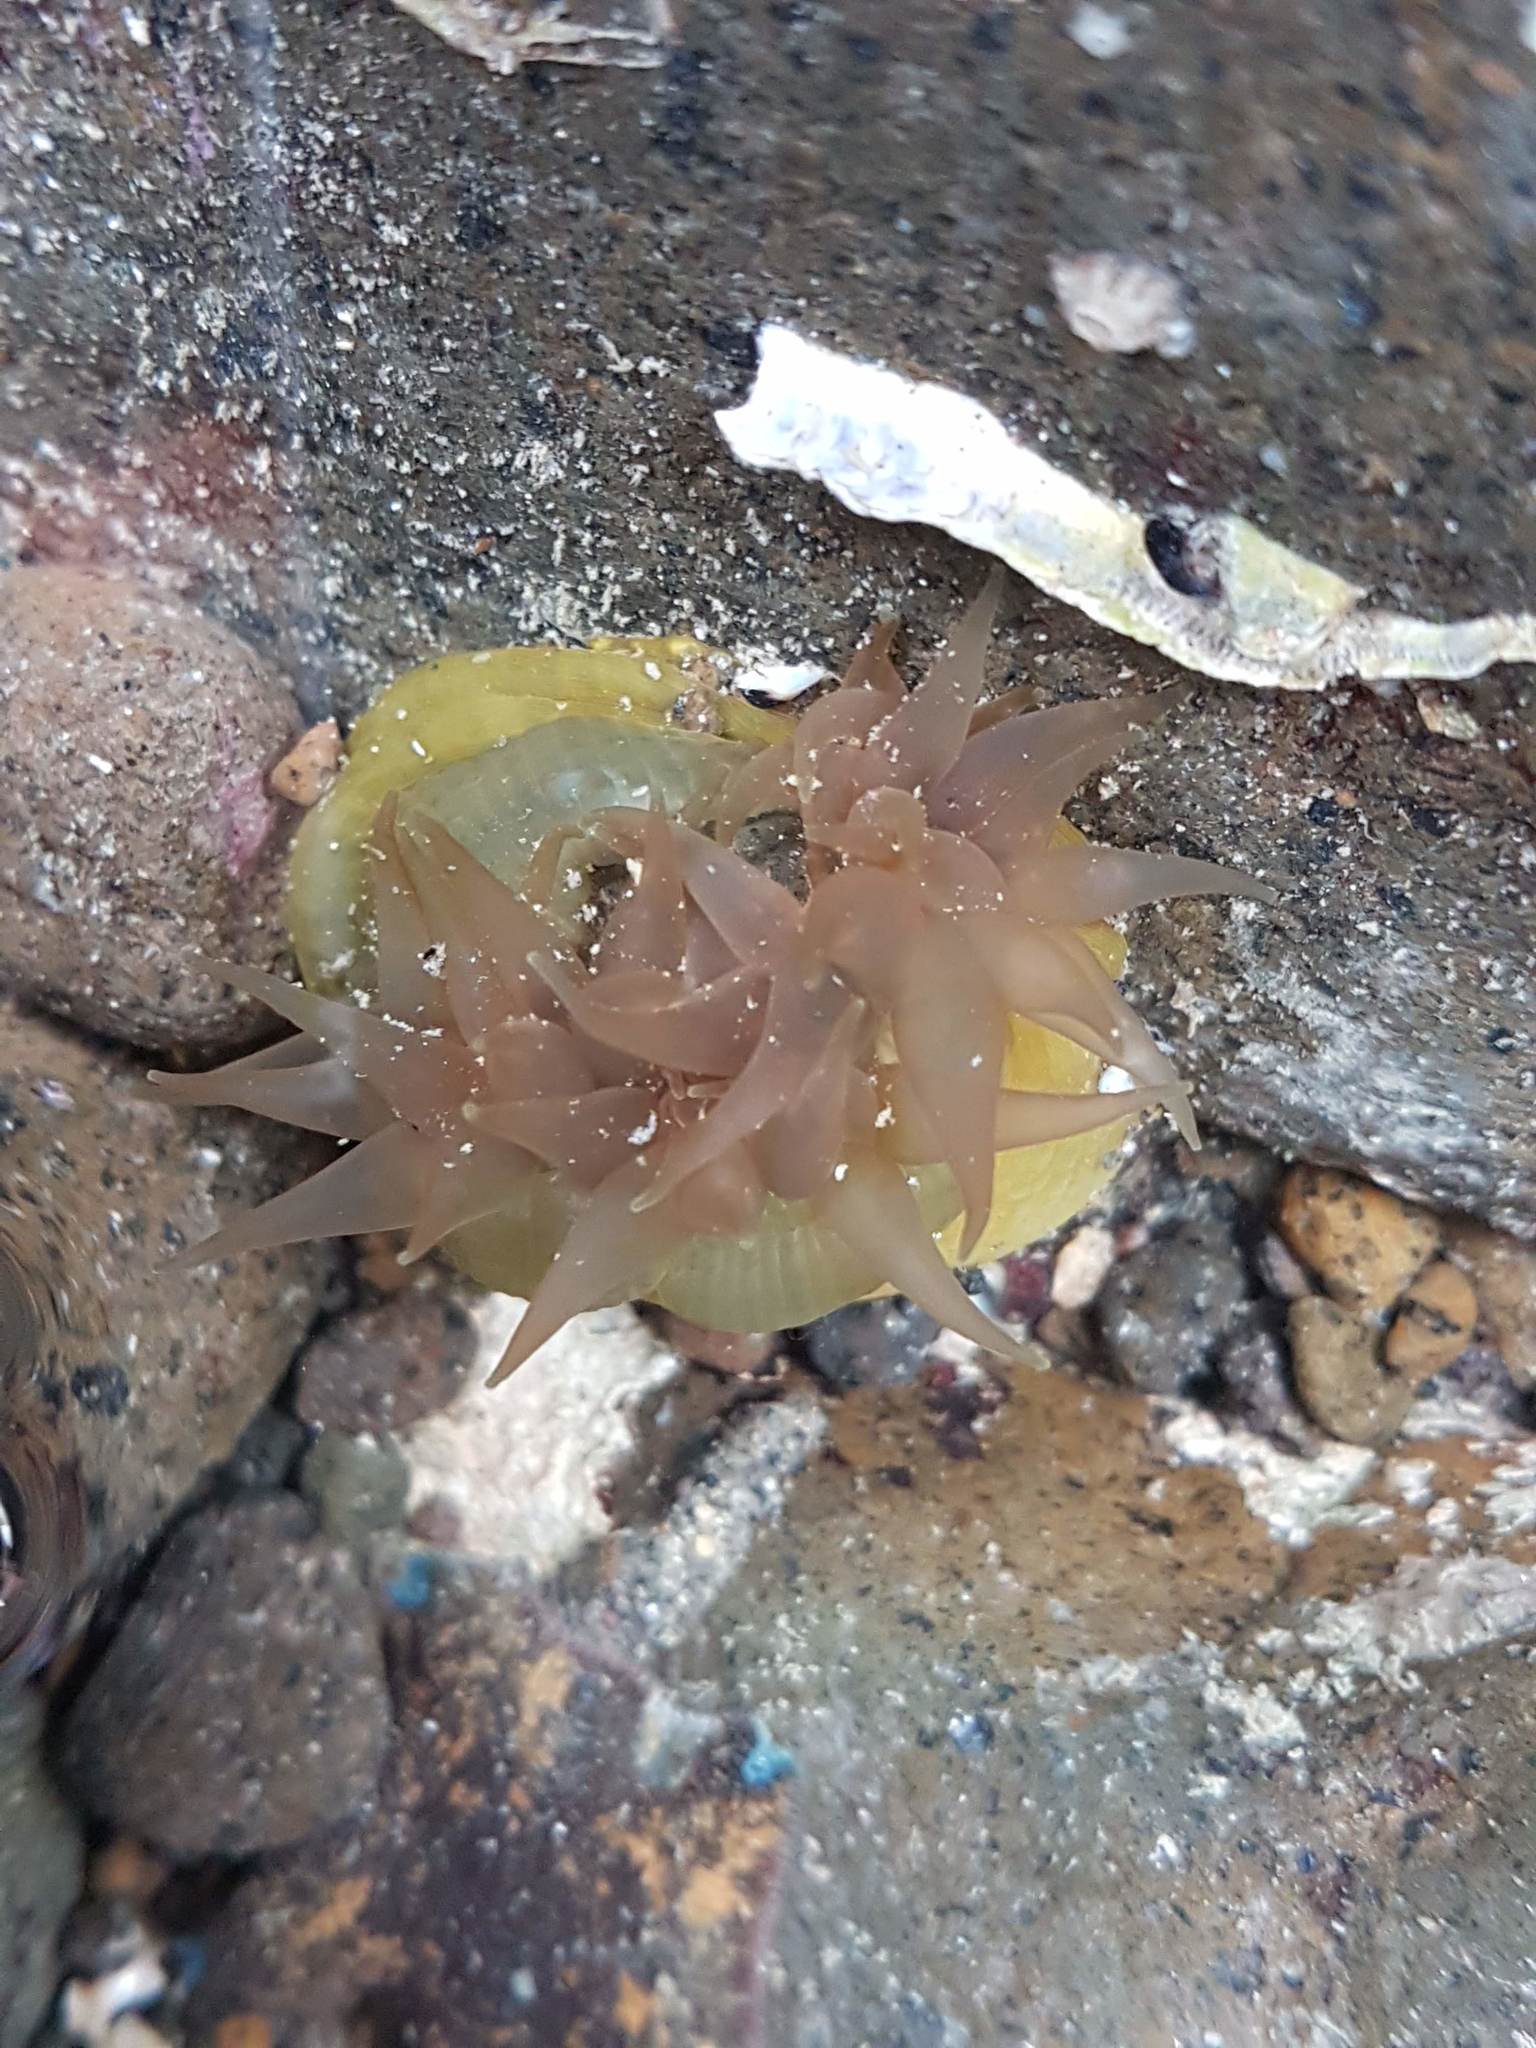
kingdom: Animalia
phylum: Cnidaria
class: Anthozoa
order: Actiniaria
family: Actiniidae
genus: Isactinia
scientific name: Isactinia olivacea
